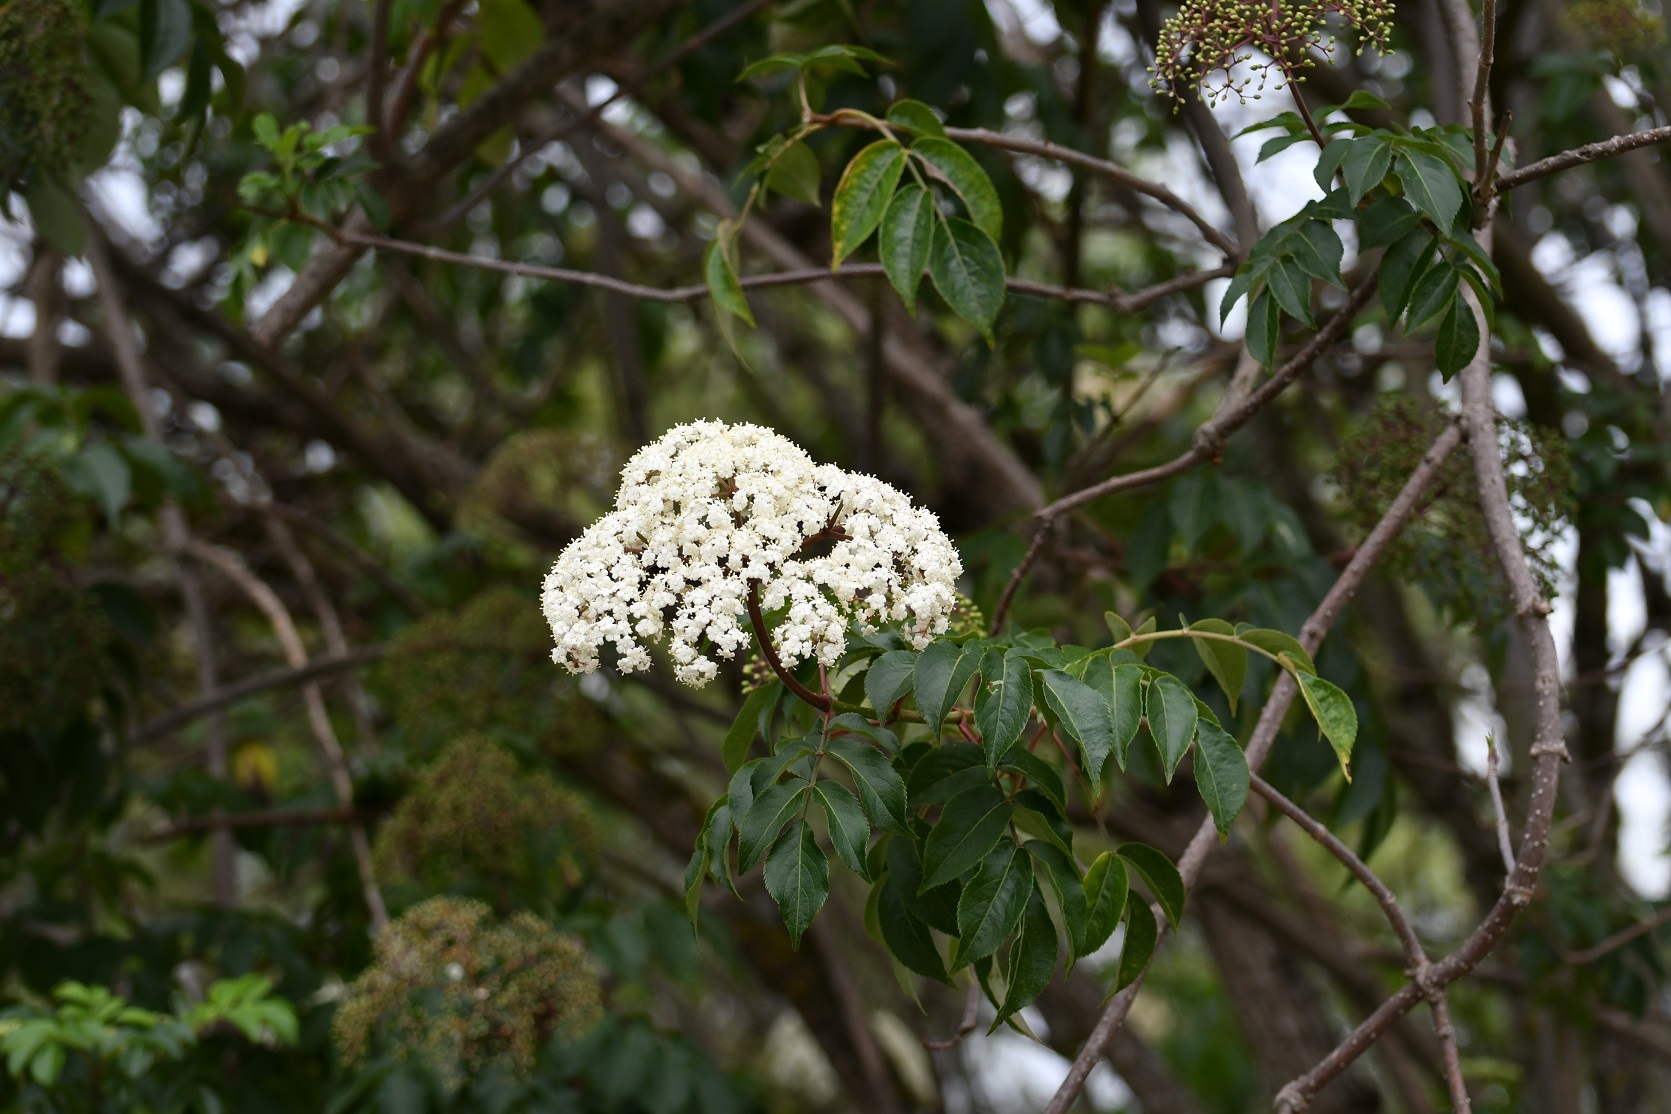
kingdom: Plantae
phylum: Tracheophyta
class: Magnoliopsida
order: Dipsacales
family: Viburnaceae
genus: Sambucus
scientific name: Sambucus nigra
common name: Elder
